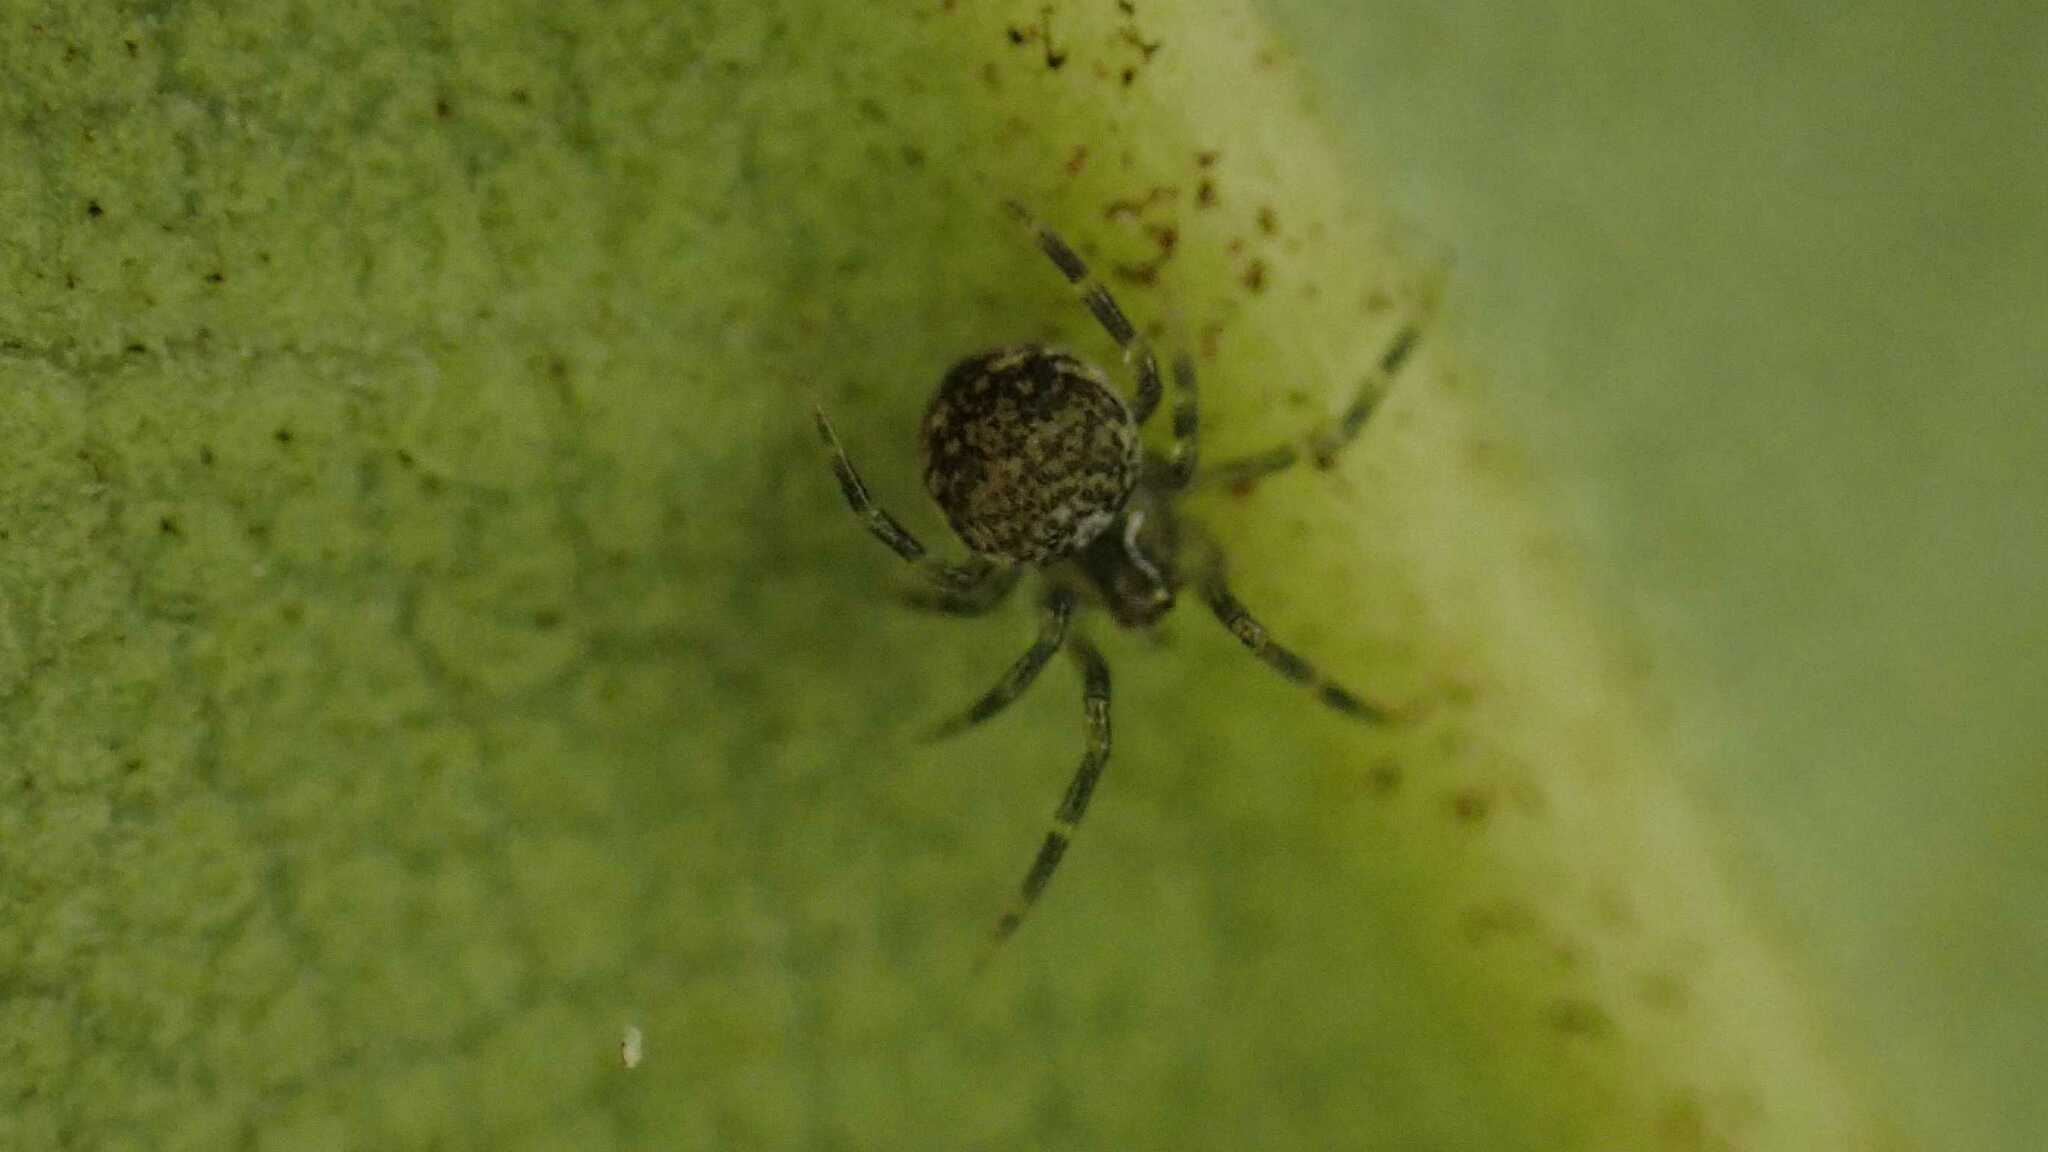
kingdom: Animalia
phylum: Arthropoda
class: Arachnida
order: Araneae
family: Theridiidae
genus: Paidiscura
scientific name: Paidiscura pallens
